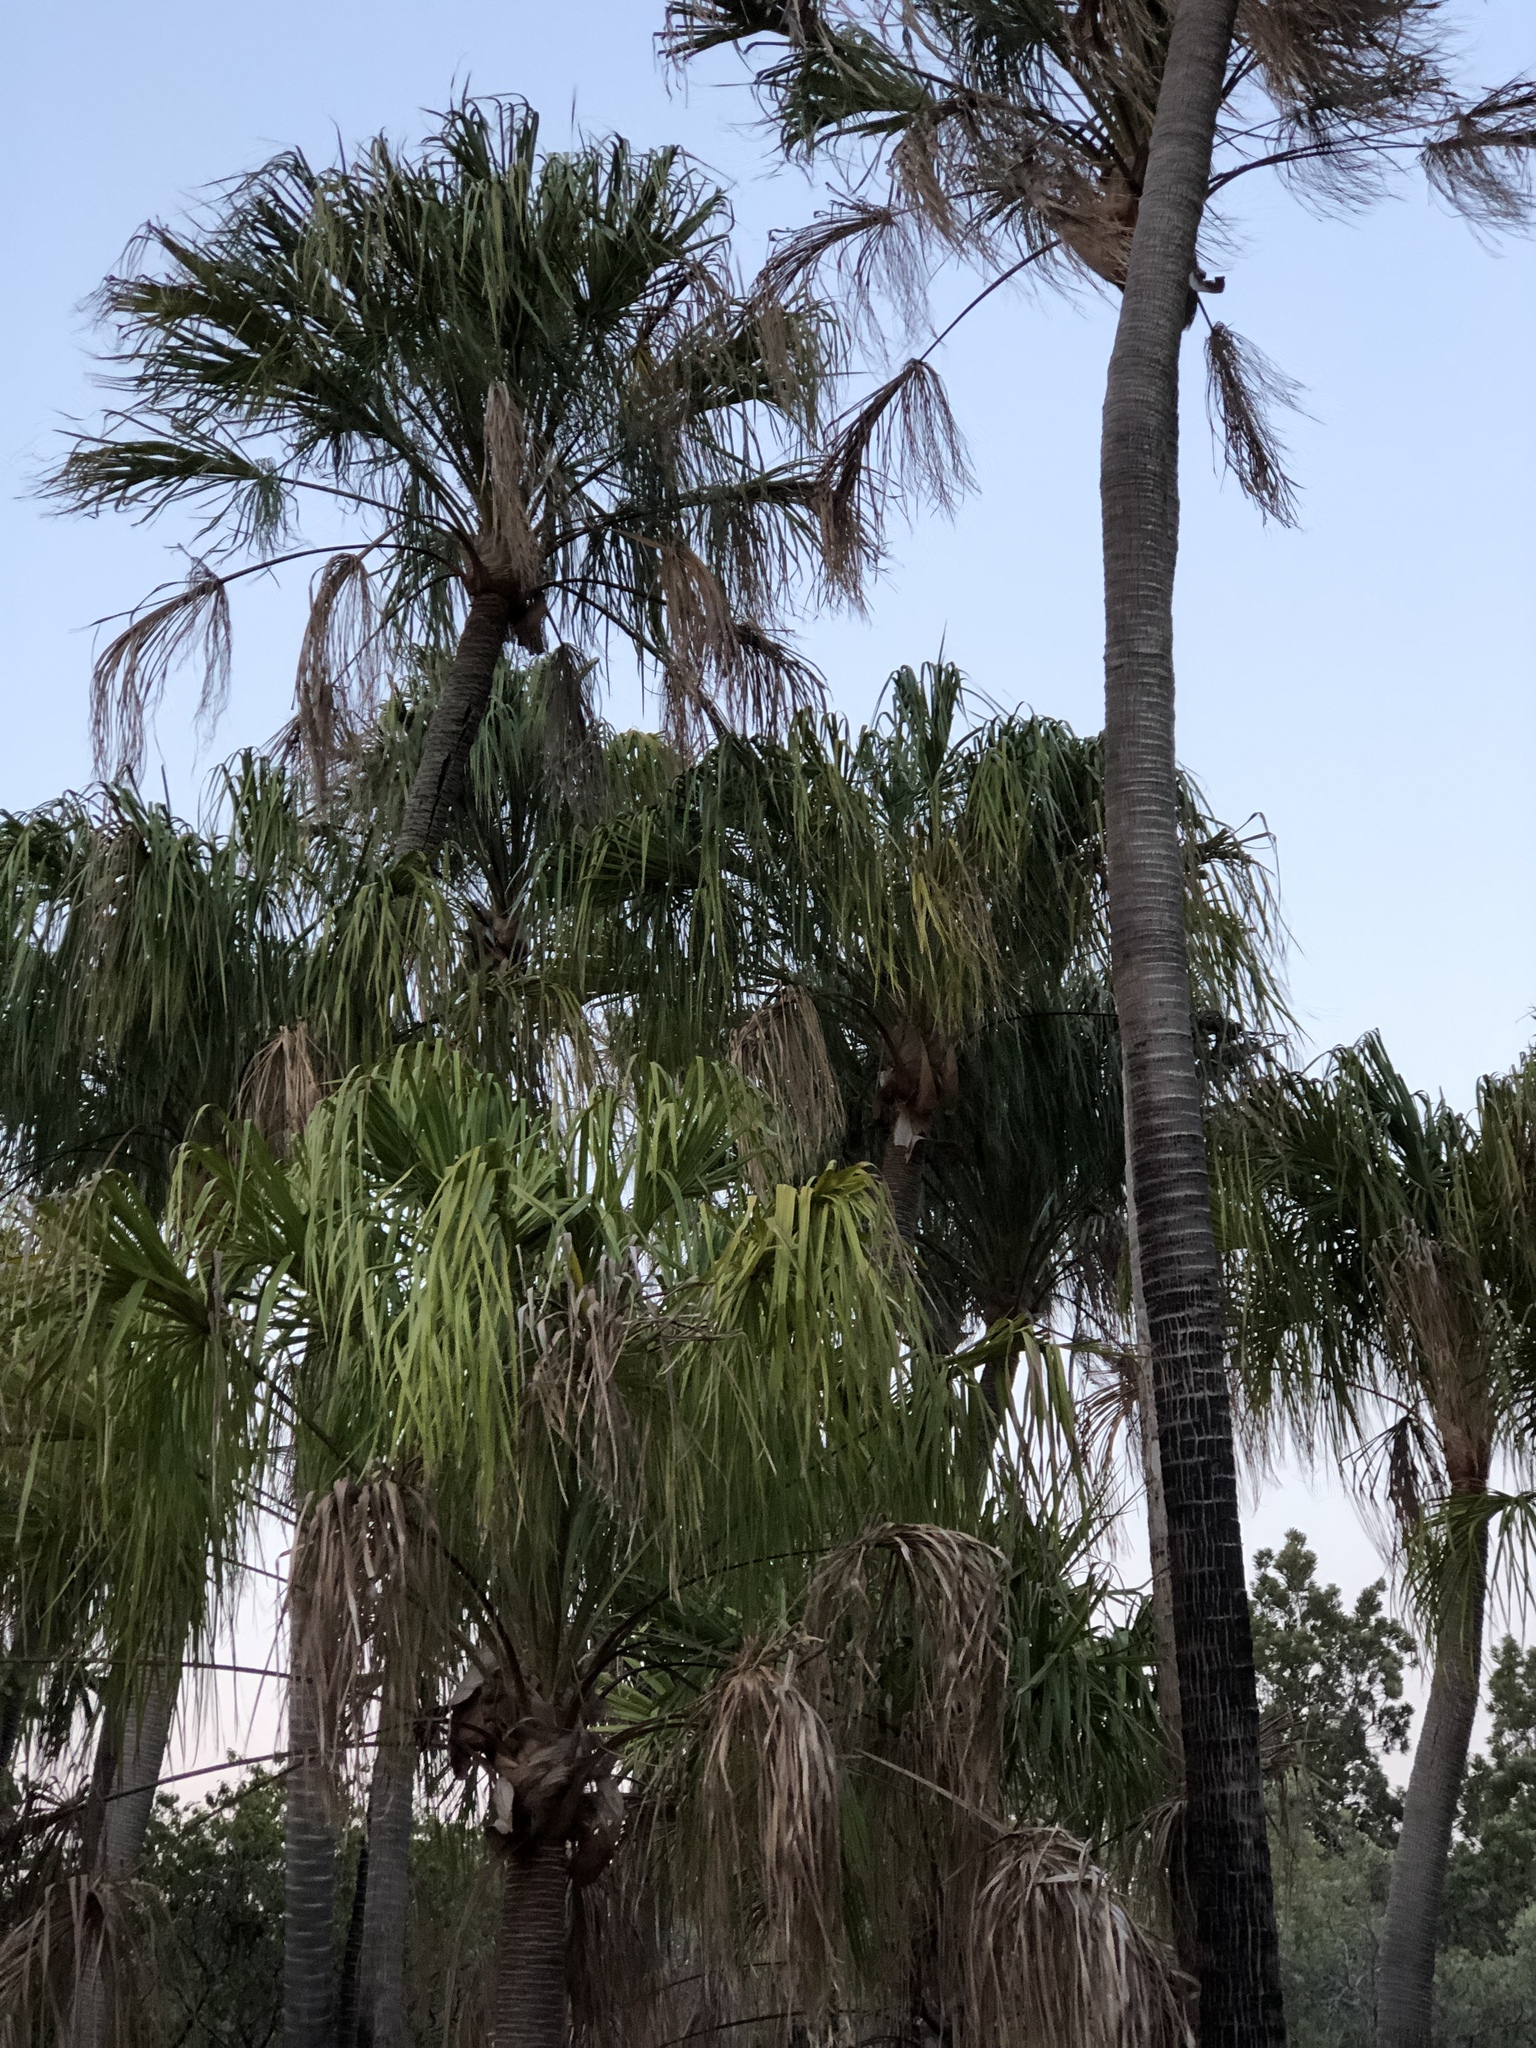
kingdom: Plantae
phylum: Tracheophyta
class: Liliopsida
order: Arecales
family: Arecaceae
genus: Livistona
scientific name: Livistona decora
